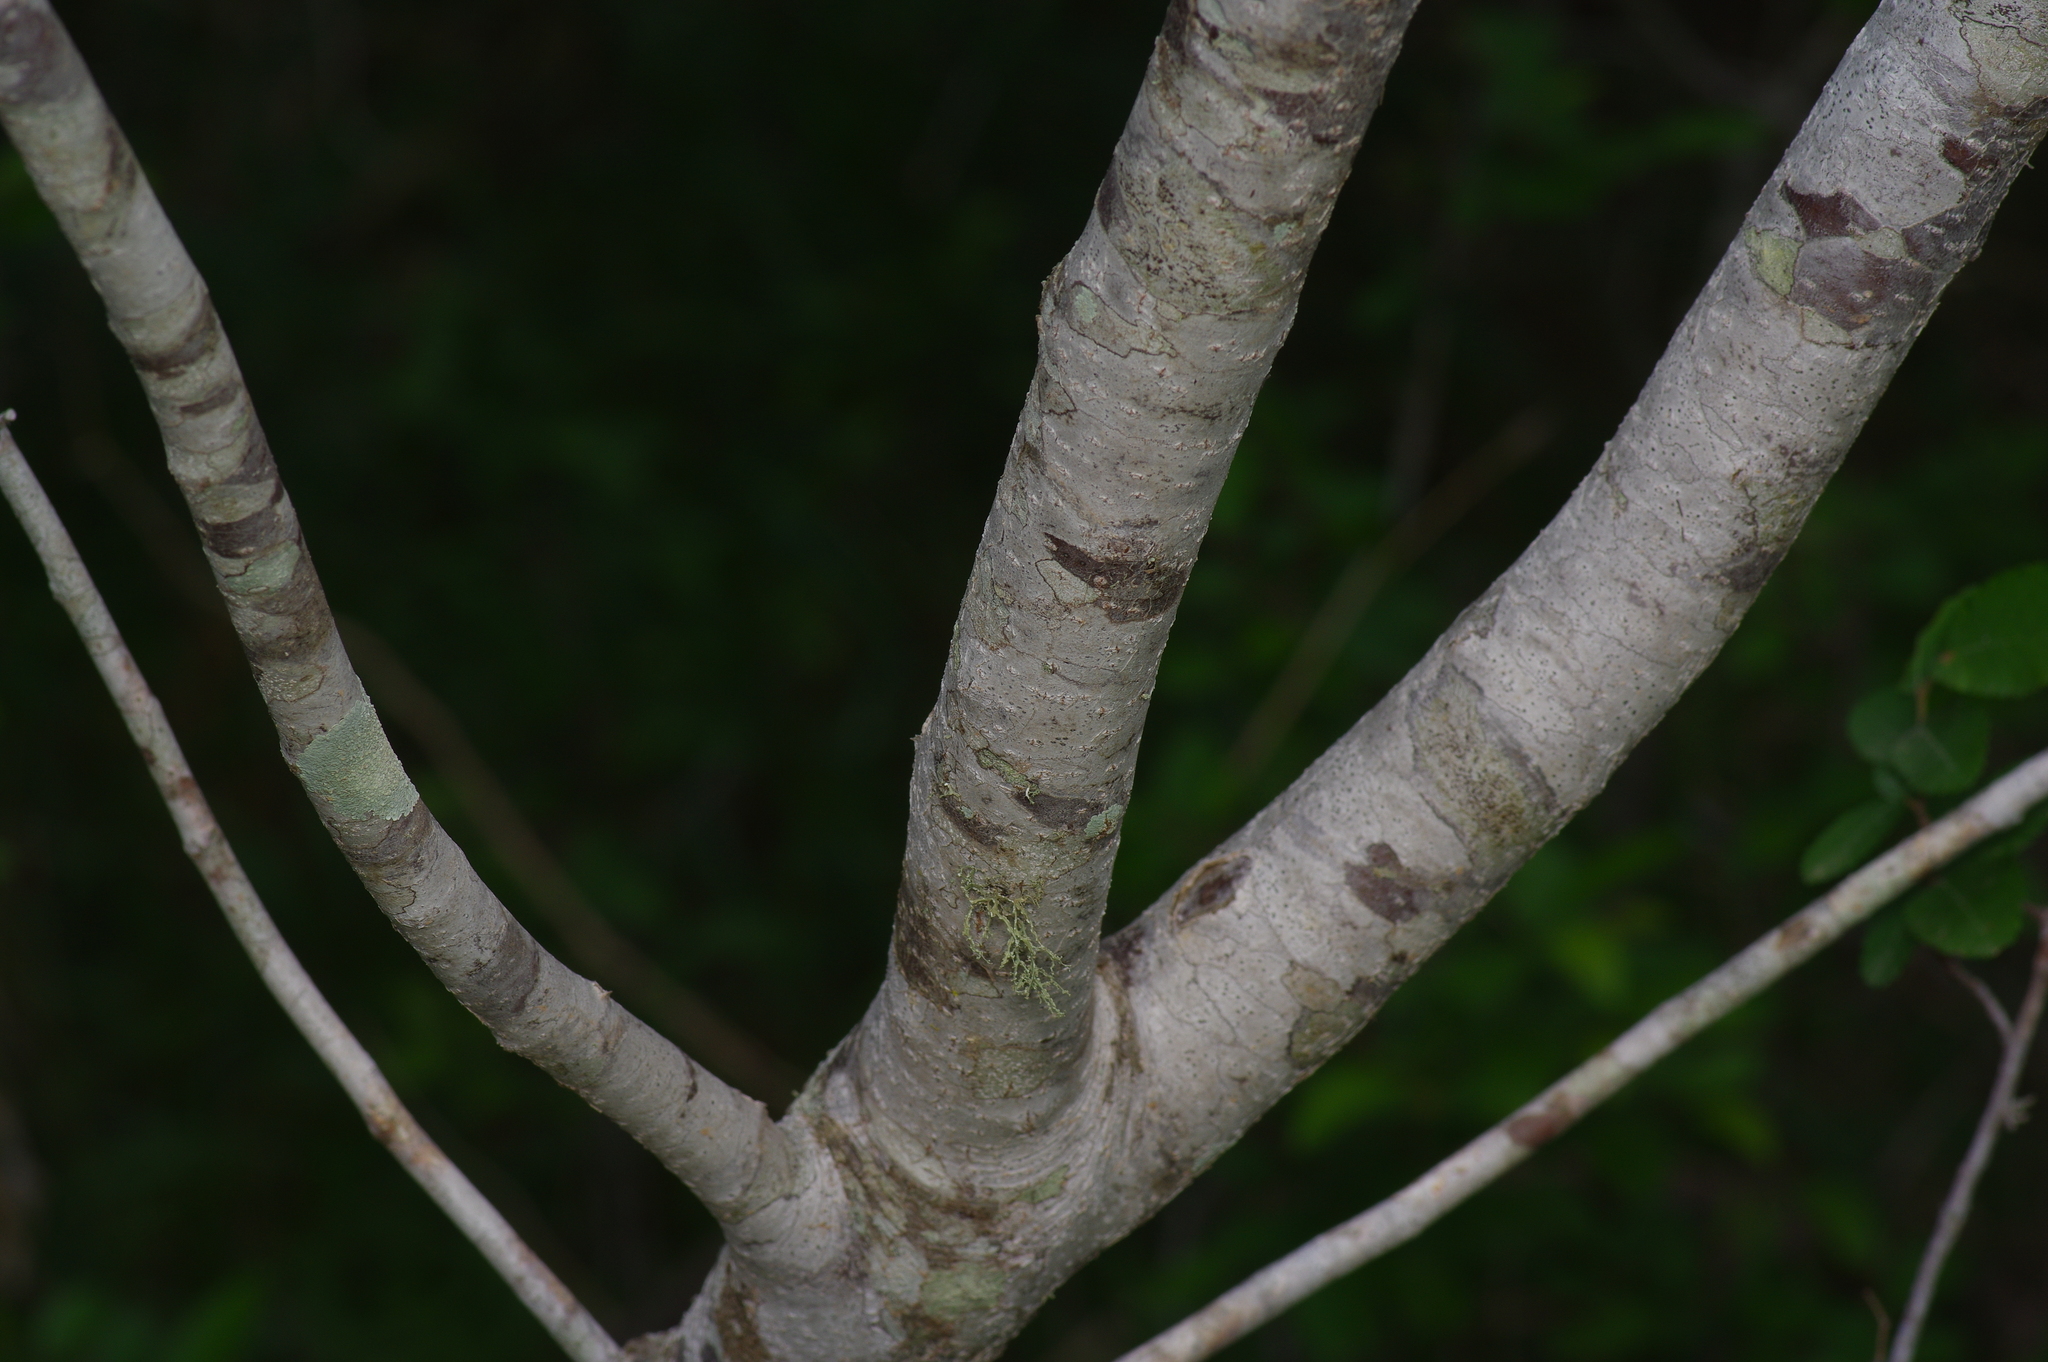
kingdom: Plantae
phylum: Tracheophyta
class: Magnoliopsida
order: Sapindales
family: Rutaceae
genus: Ptelea
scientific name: Ptelea trifoliata
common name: Common hop-tree
